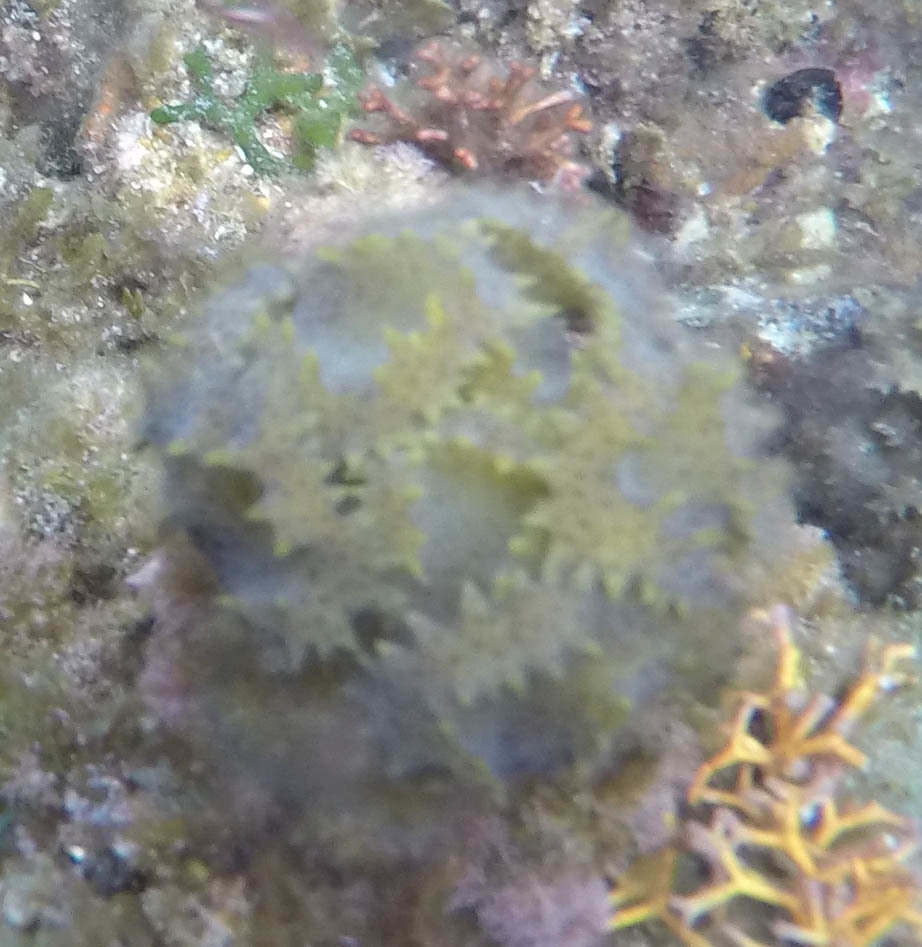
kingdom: Chromista
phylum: Ochrophyta
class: Phaeophyceae
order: Fucales
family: Sargassaceae
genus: Turbinaria
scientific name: Turbinaria ornata
